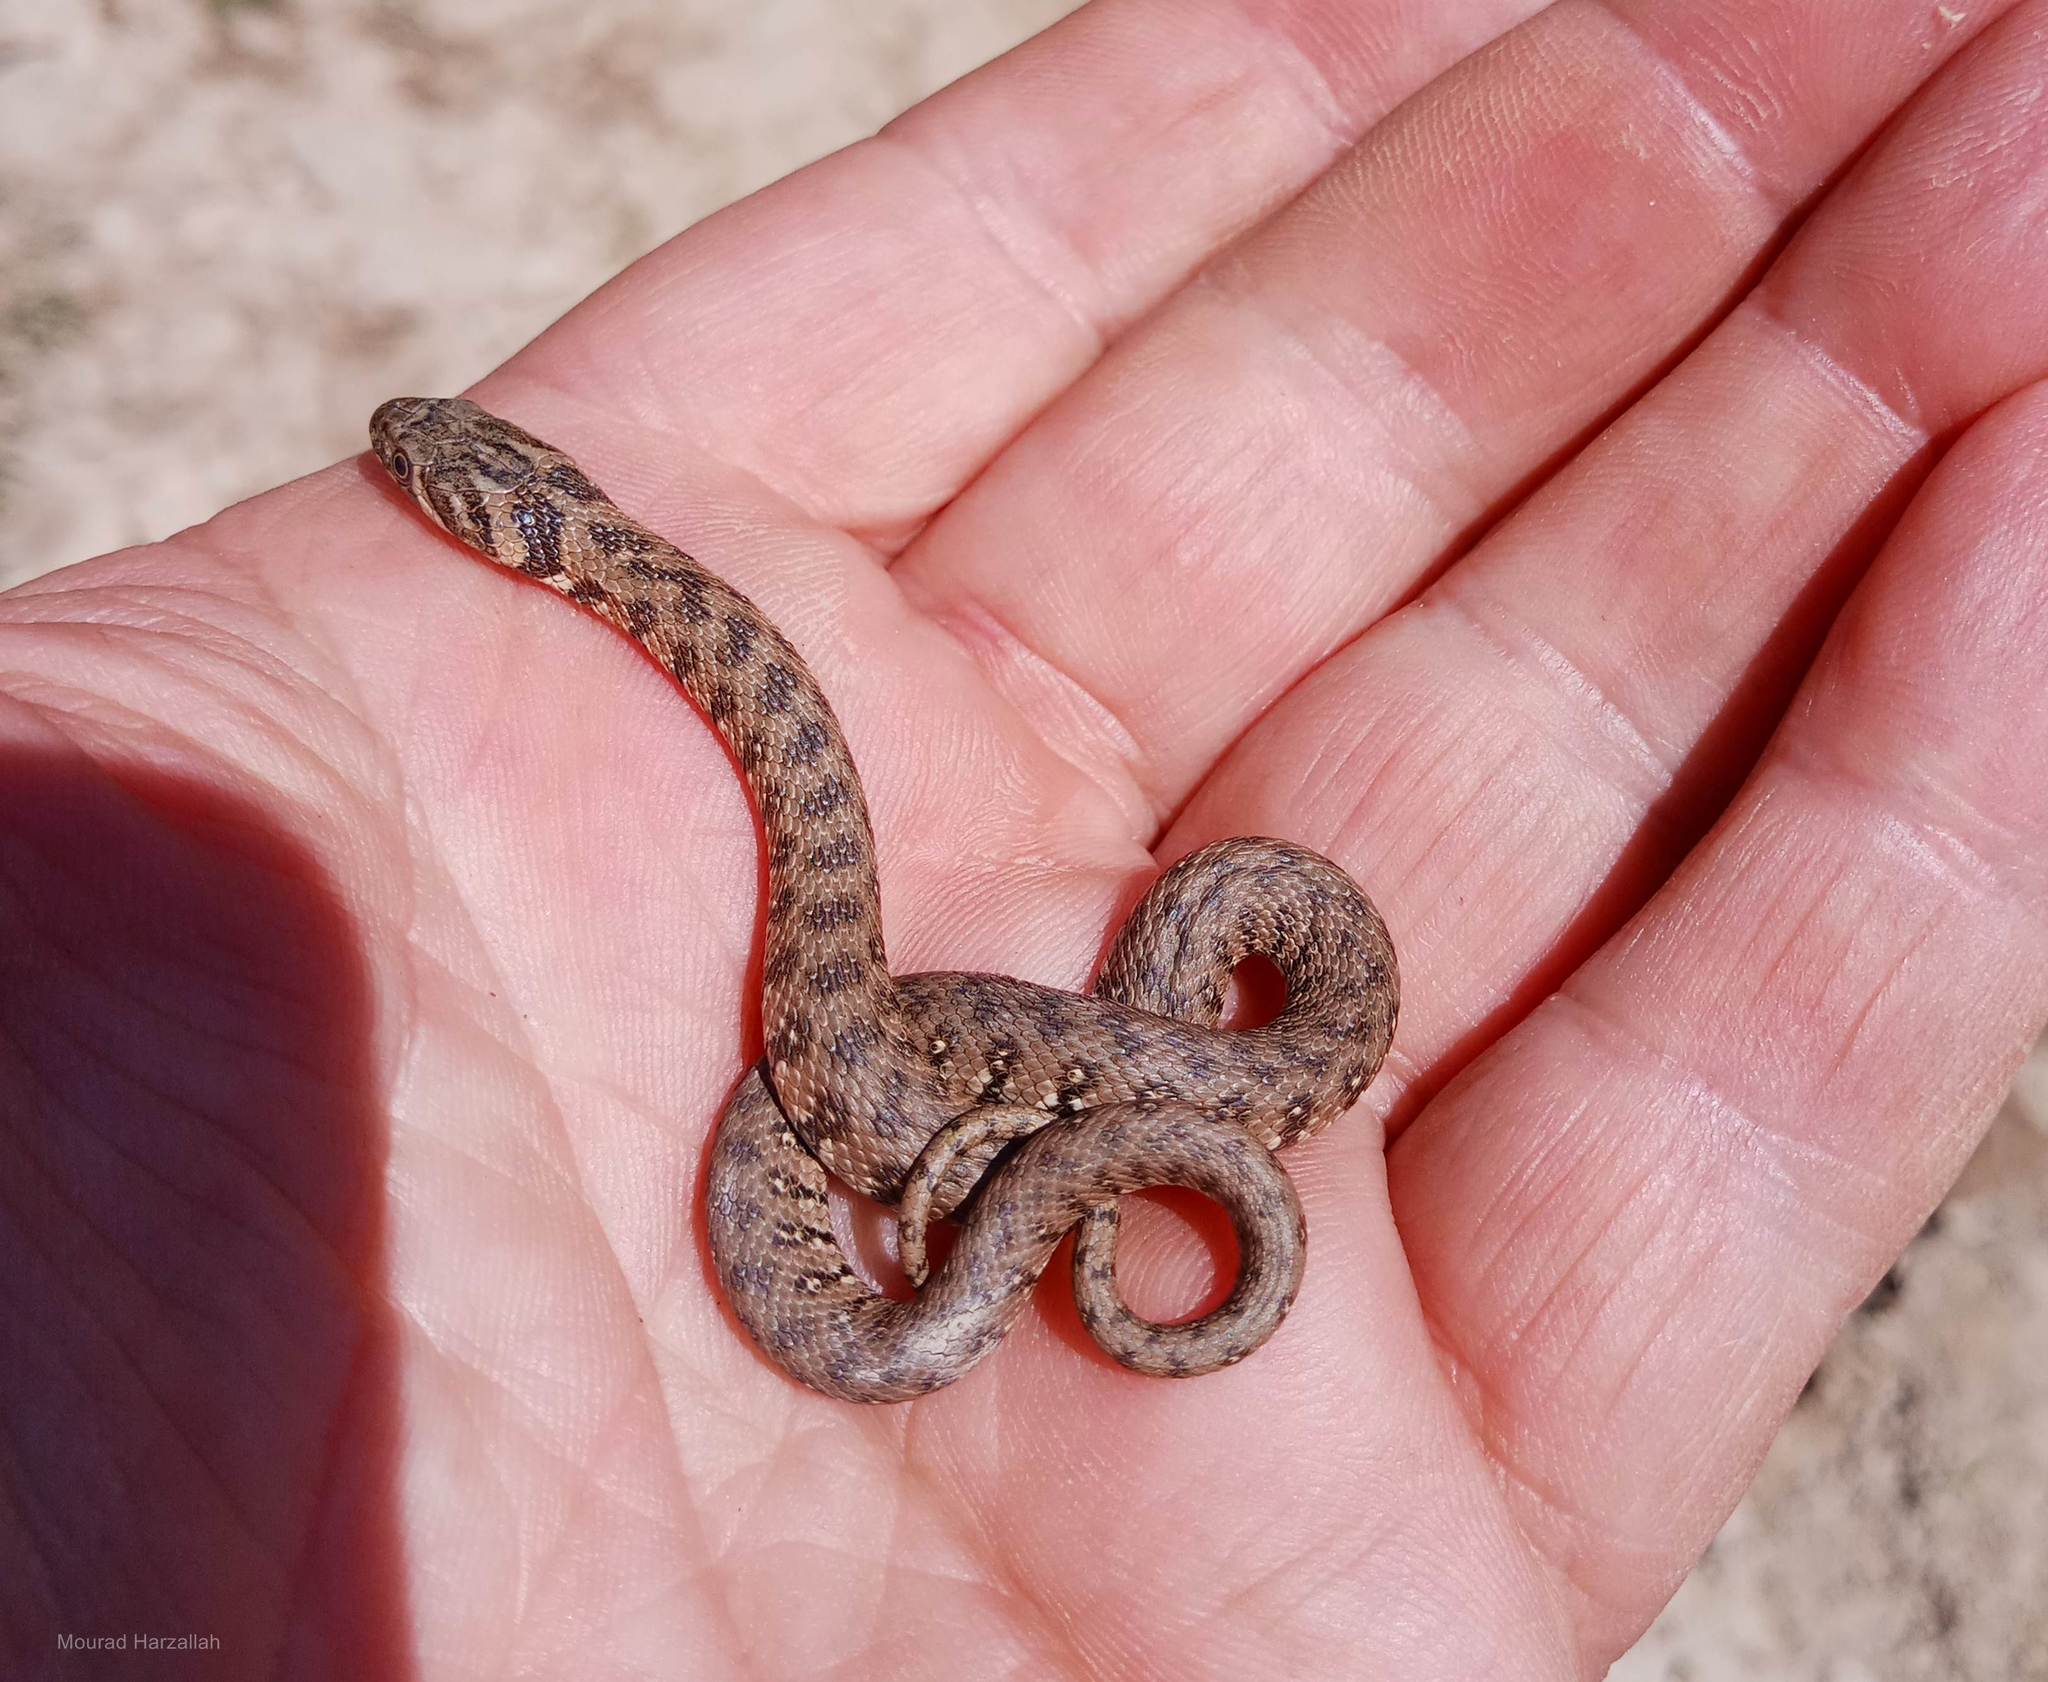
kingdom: Animalia
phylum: Chordata
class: Squamata
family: Colubridae
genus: Natrix
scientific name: Natrix maura
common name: Viperine water snake
